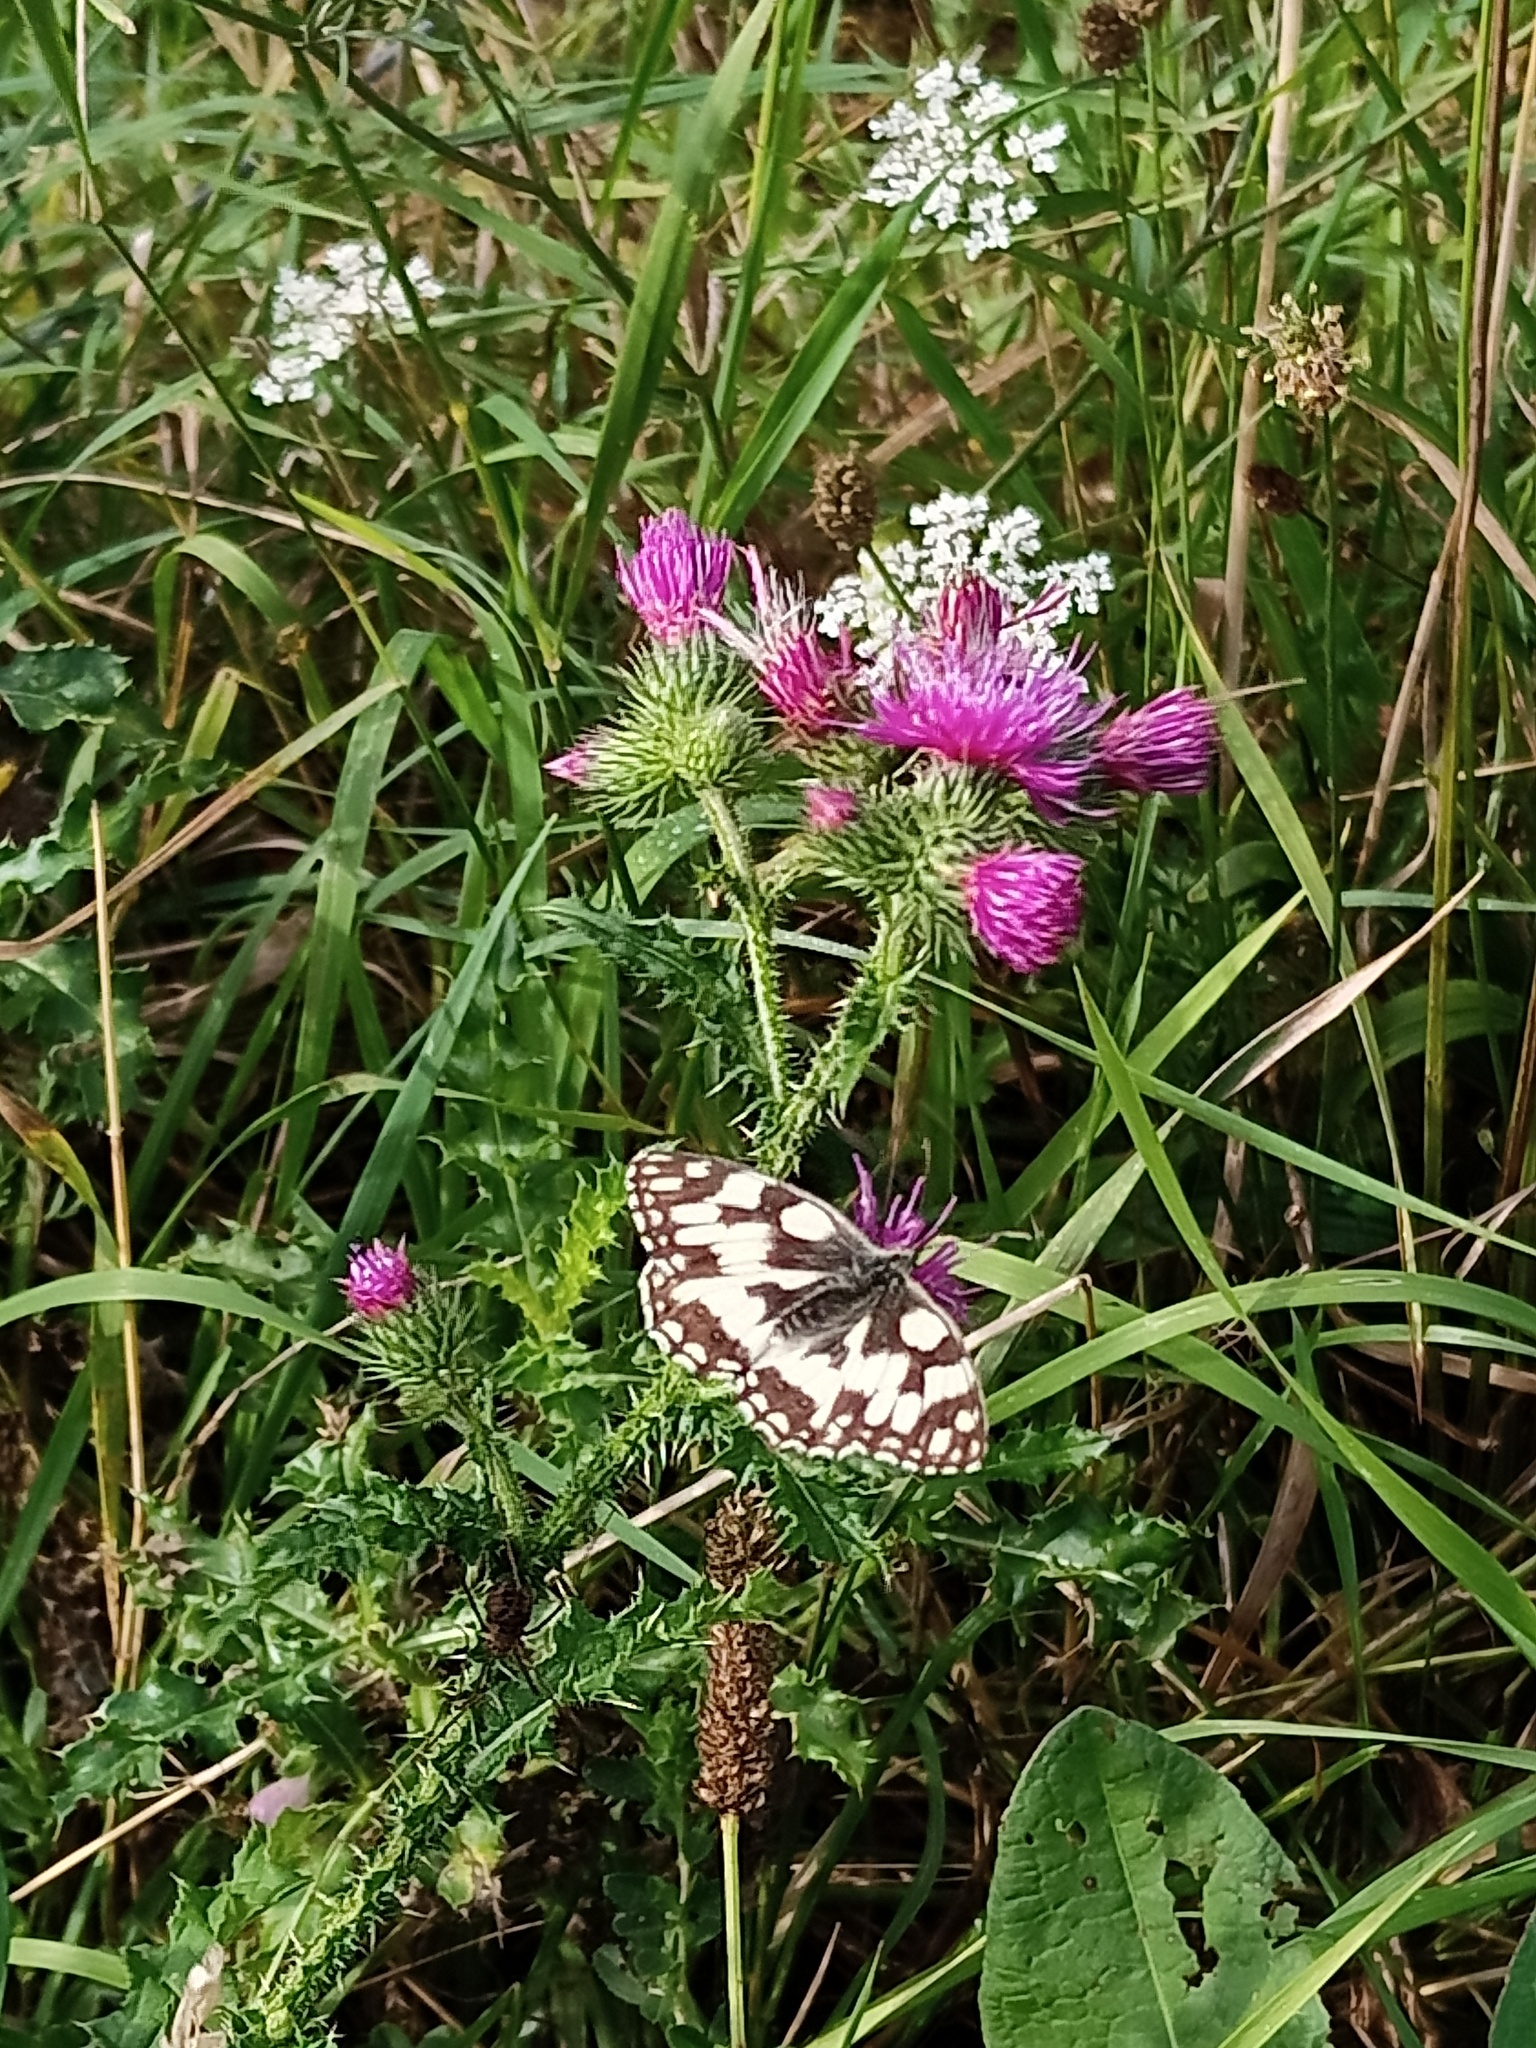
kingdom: Animalia
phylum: Arthropoda
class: Insecta
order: Lepidoptera
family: Nymphalidae
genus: Melanargia
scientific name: Melanargia galathea
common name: Marbled white
